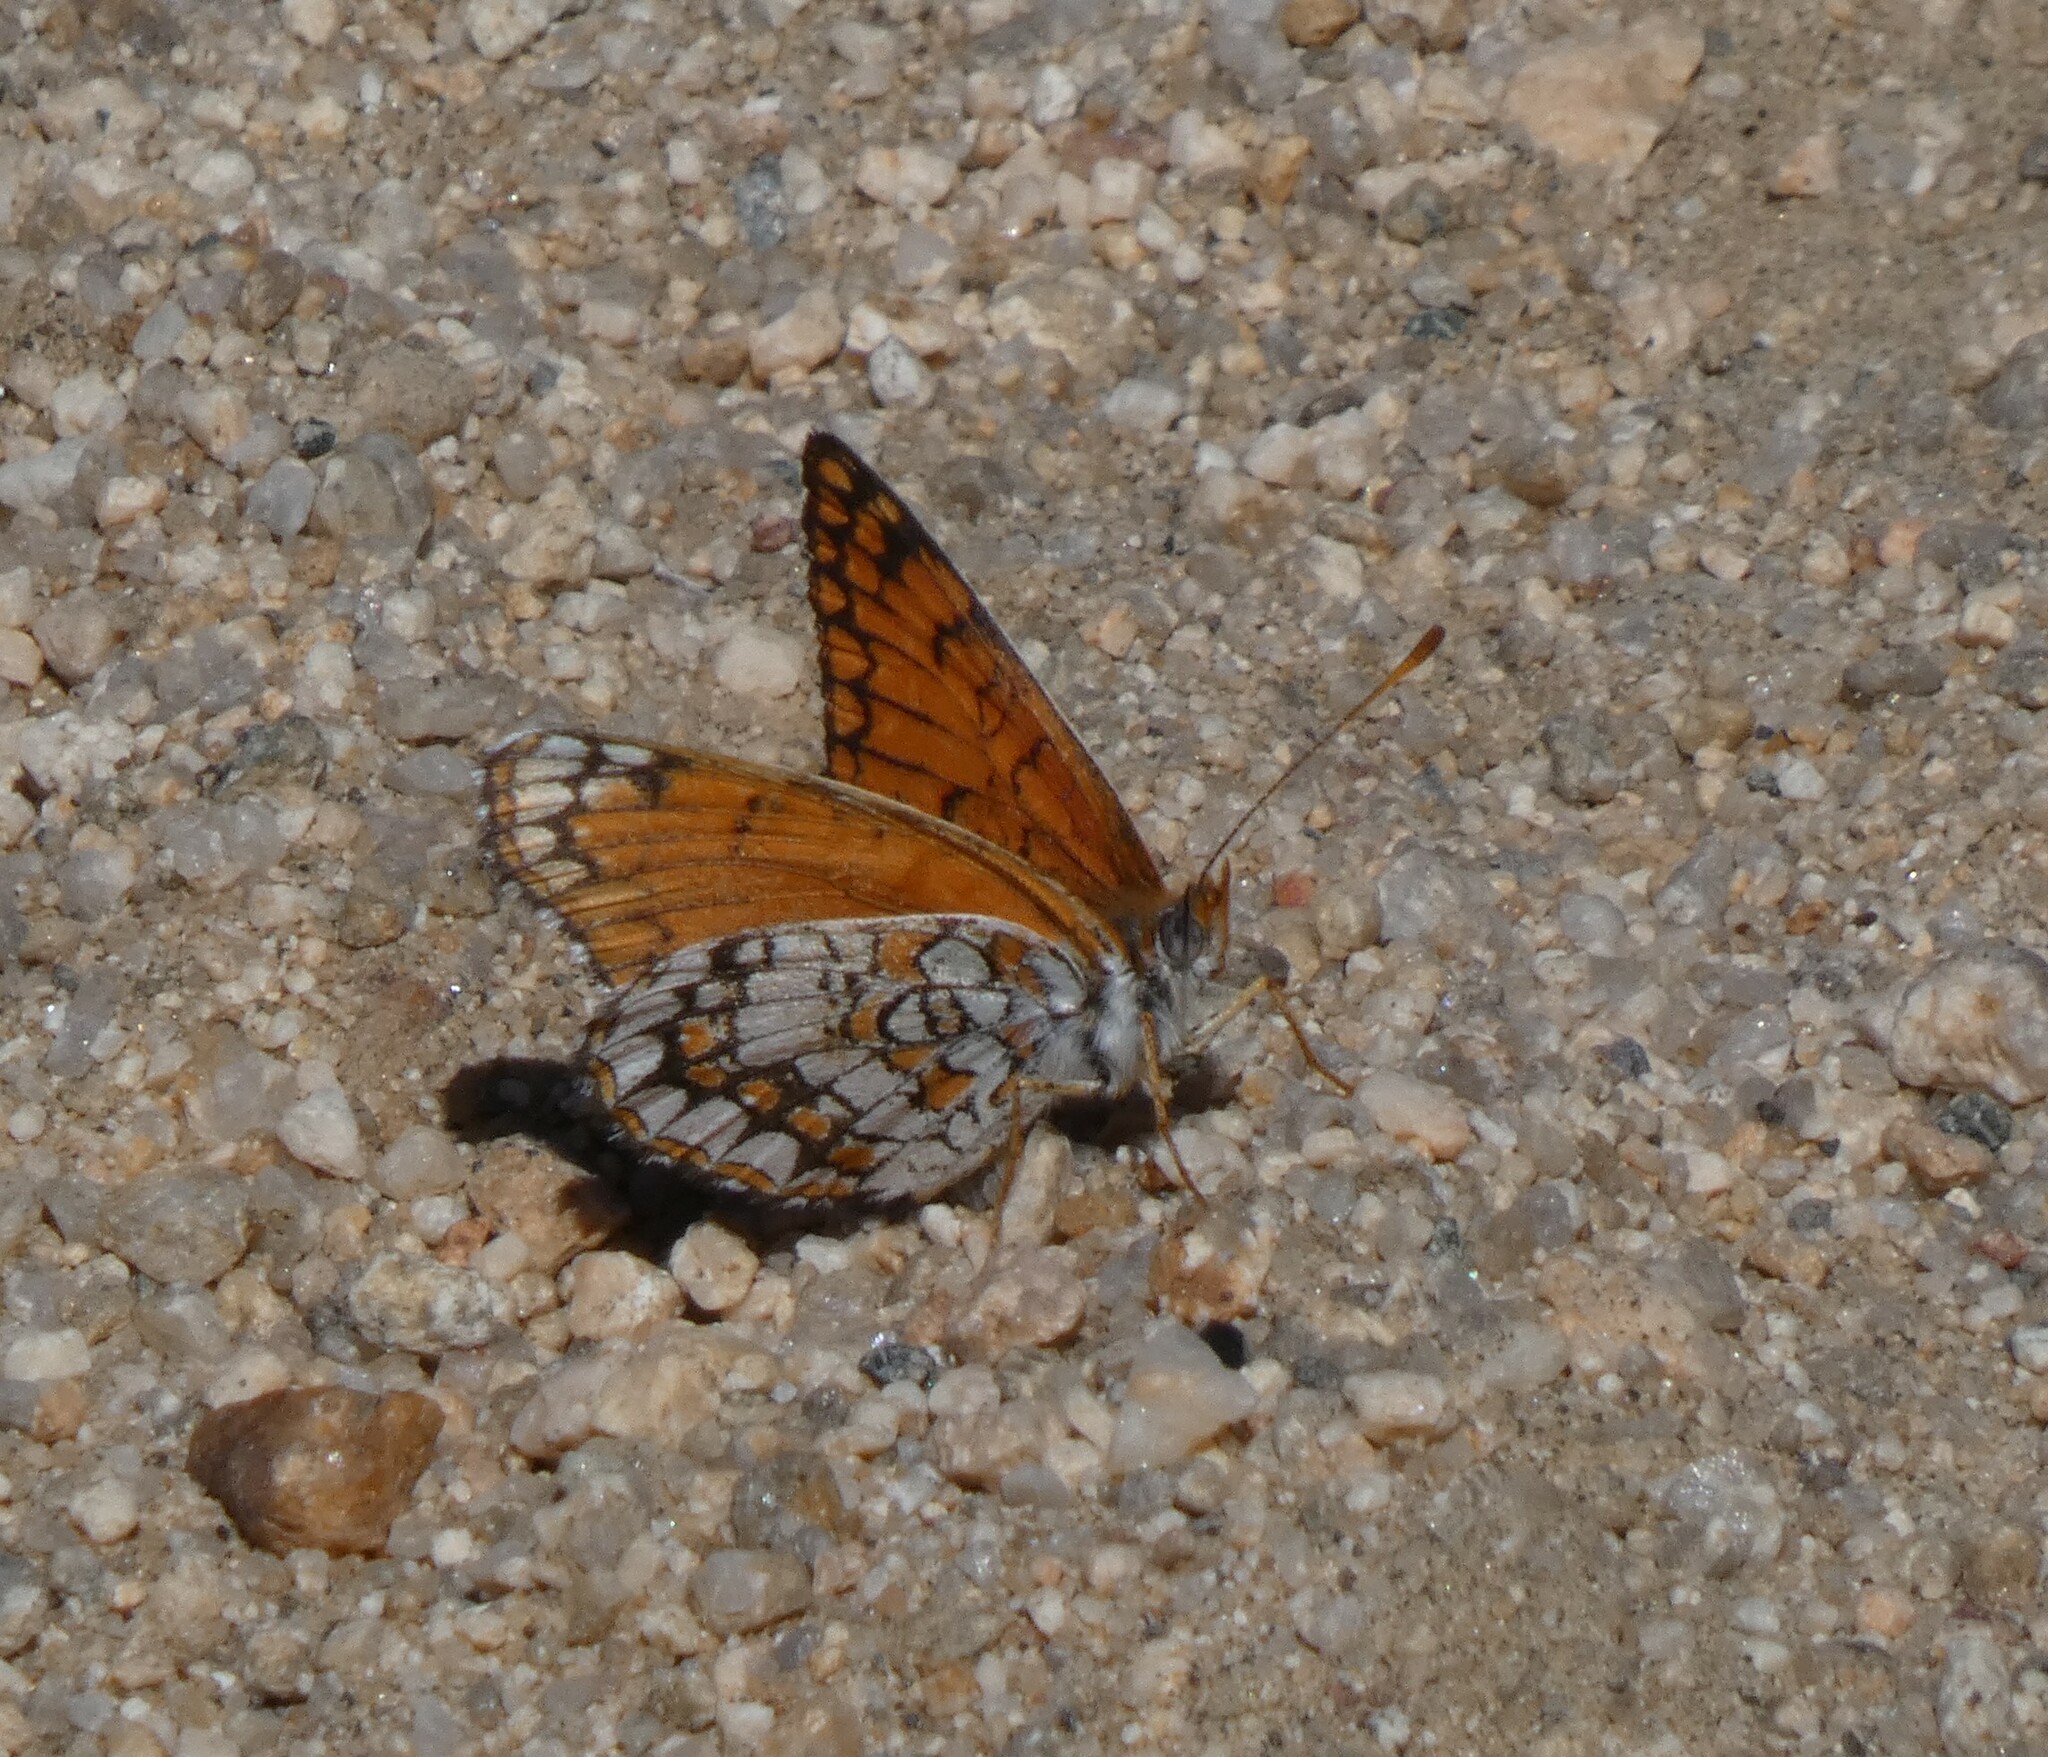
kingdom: Animalia
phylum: Arthropoda
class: Insecta
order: Lepidoptera
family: Nymphalidae
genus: Chlosyne
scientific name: Chlosyne acastus
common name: Sagebrush checkerspot
